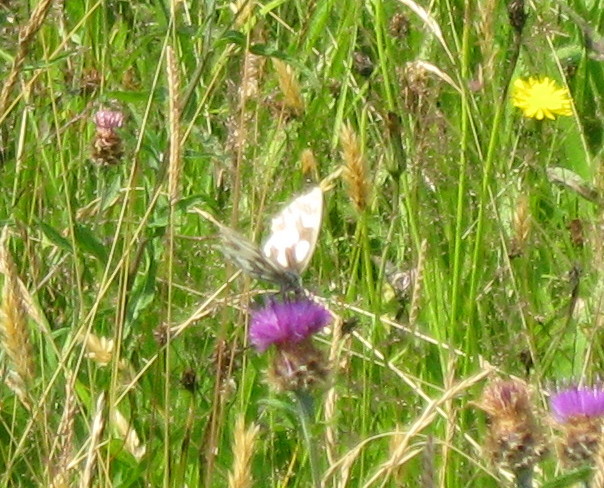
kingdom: Animalia
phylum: Arthropoda
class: Insecta
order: Lepidoptera
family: Nymphalidae
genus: Melanargia
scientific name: Melanargia galathea
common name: Marbled white
